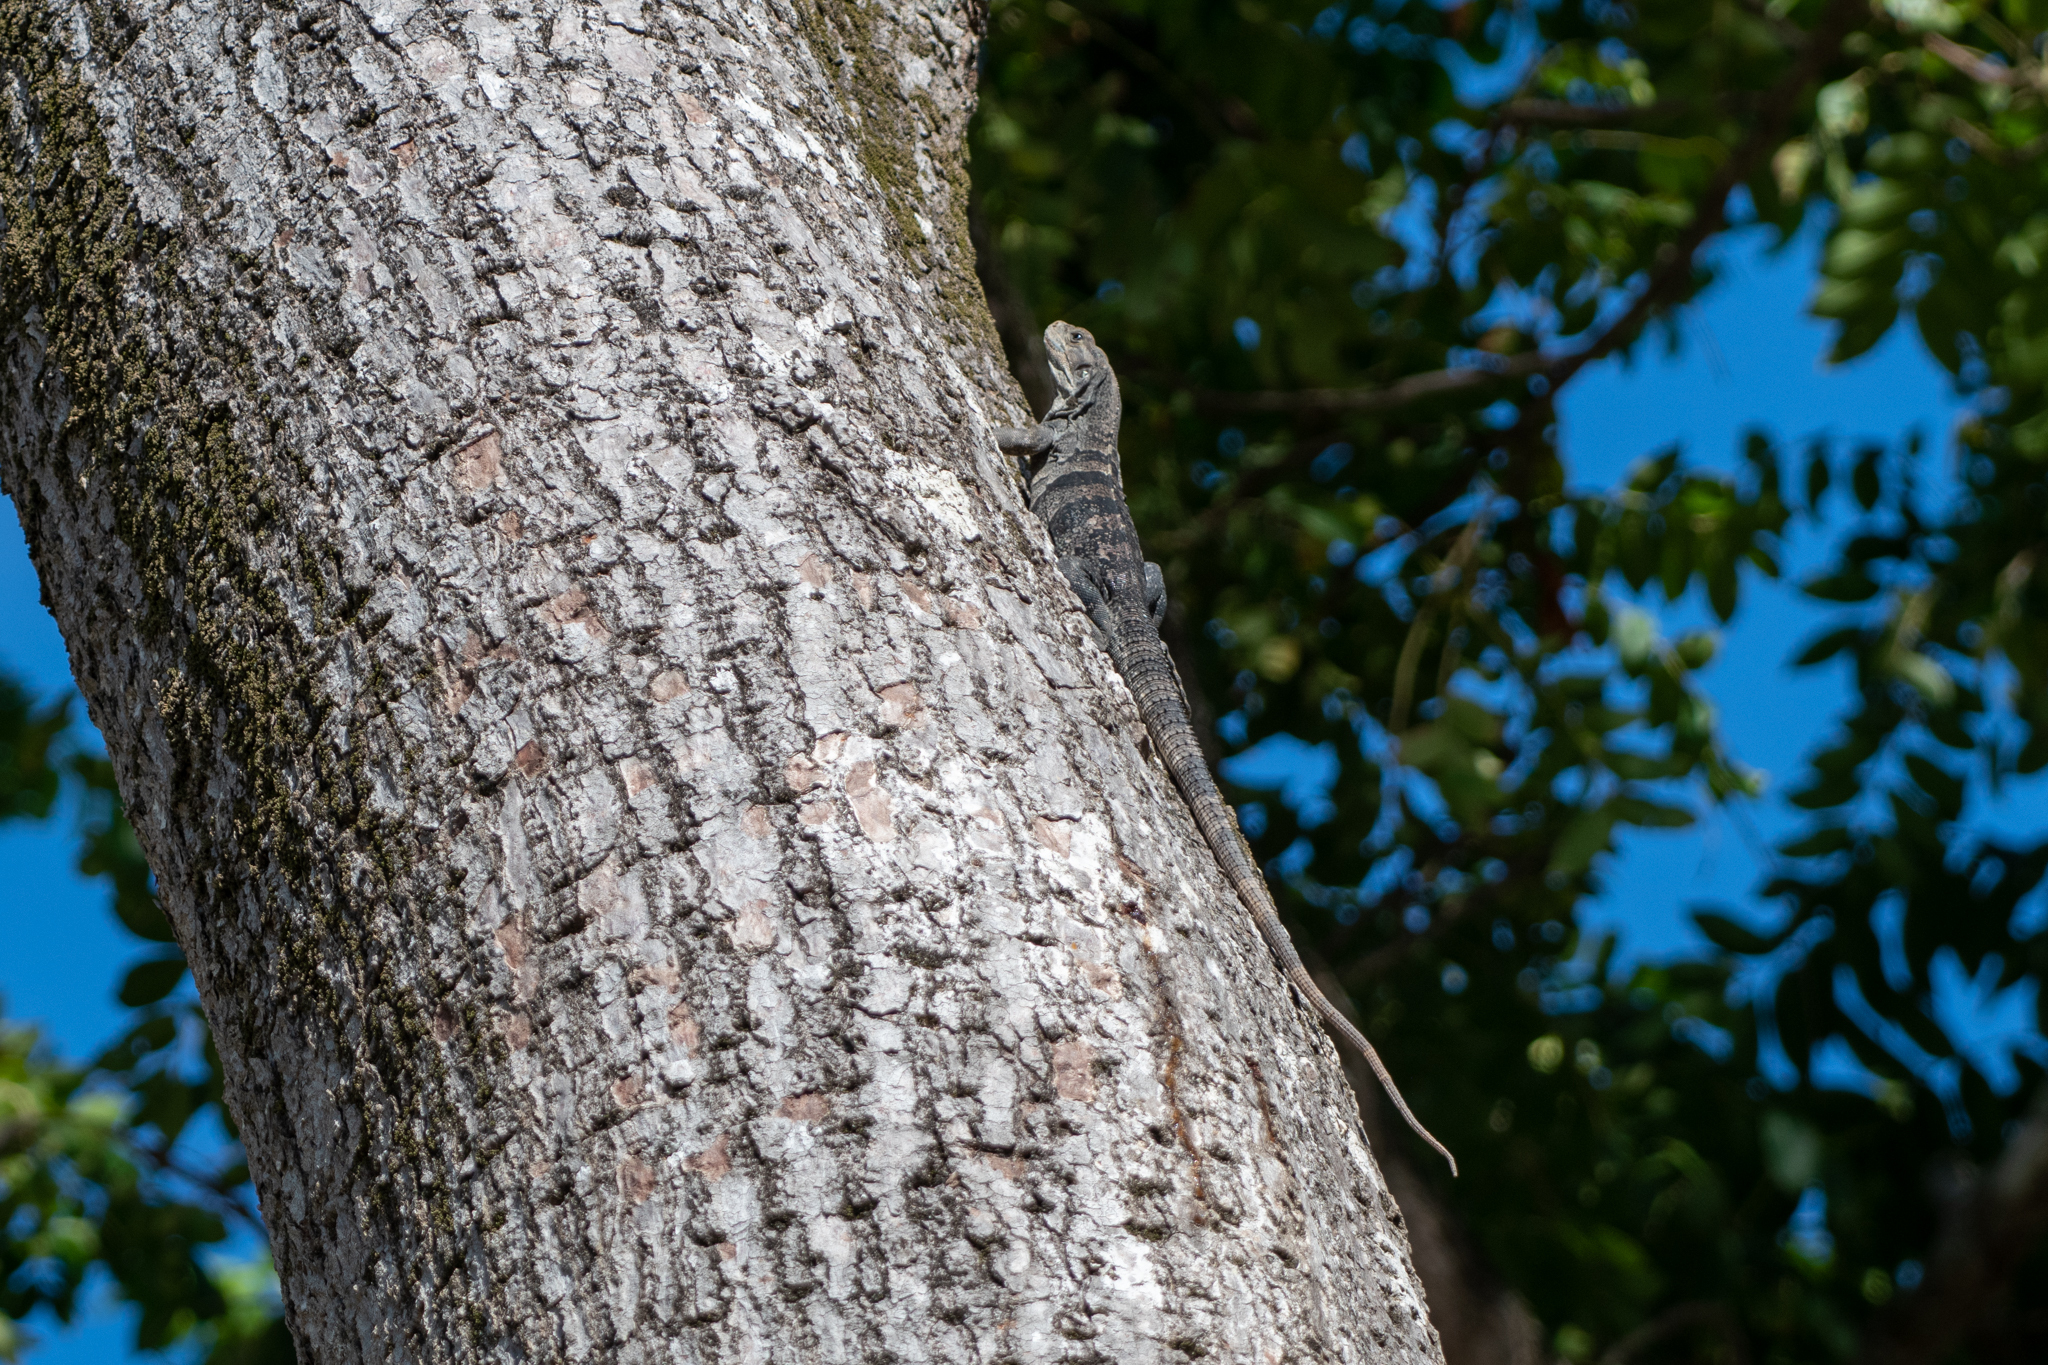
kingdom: Animalia
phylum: Chordata
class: Squamata
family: Iguanidae
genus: Ctenosaura
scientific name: Ctenosaura similis
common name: Black spiny-tailed iguana
